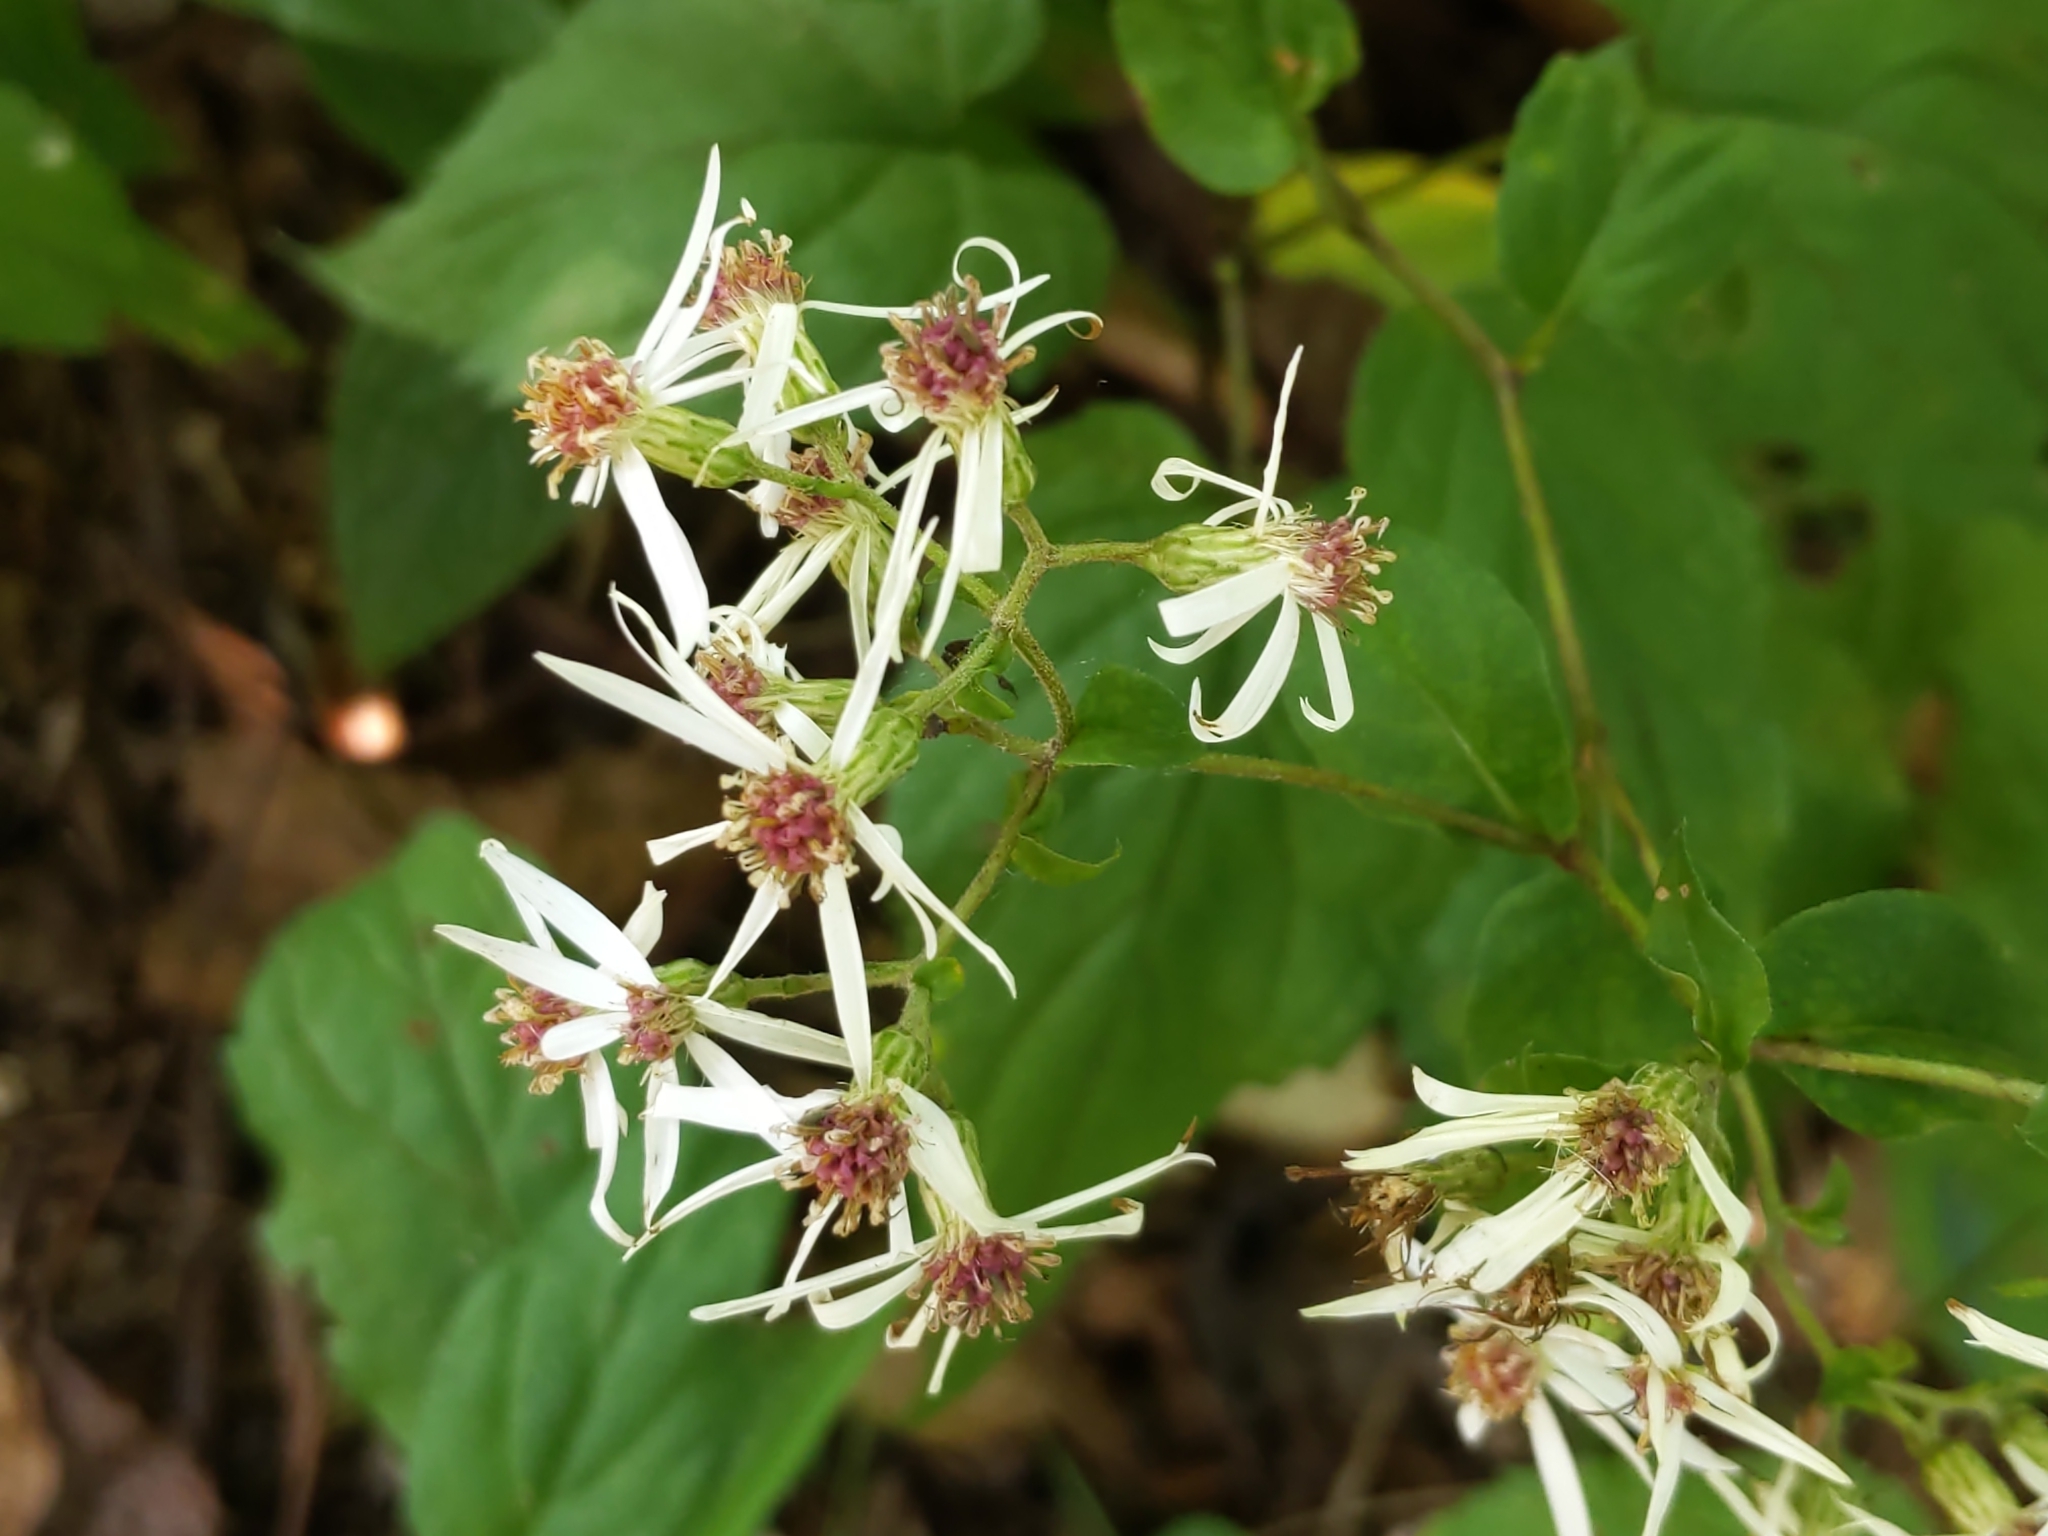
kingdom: Plantae
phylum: Tracheophyta
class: Magnoliopsida
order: Asterales
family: Asteraceae
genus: Eurybia
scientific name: Eurybia divaricata
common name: White wood aster
